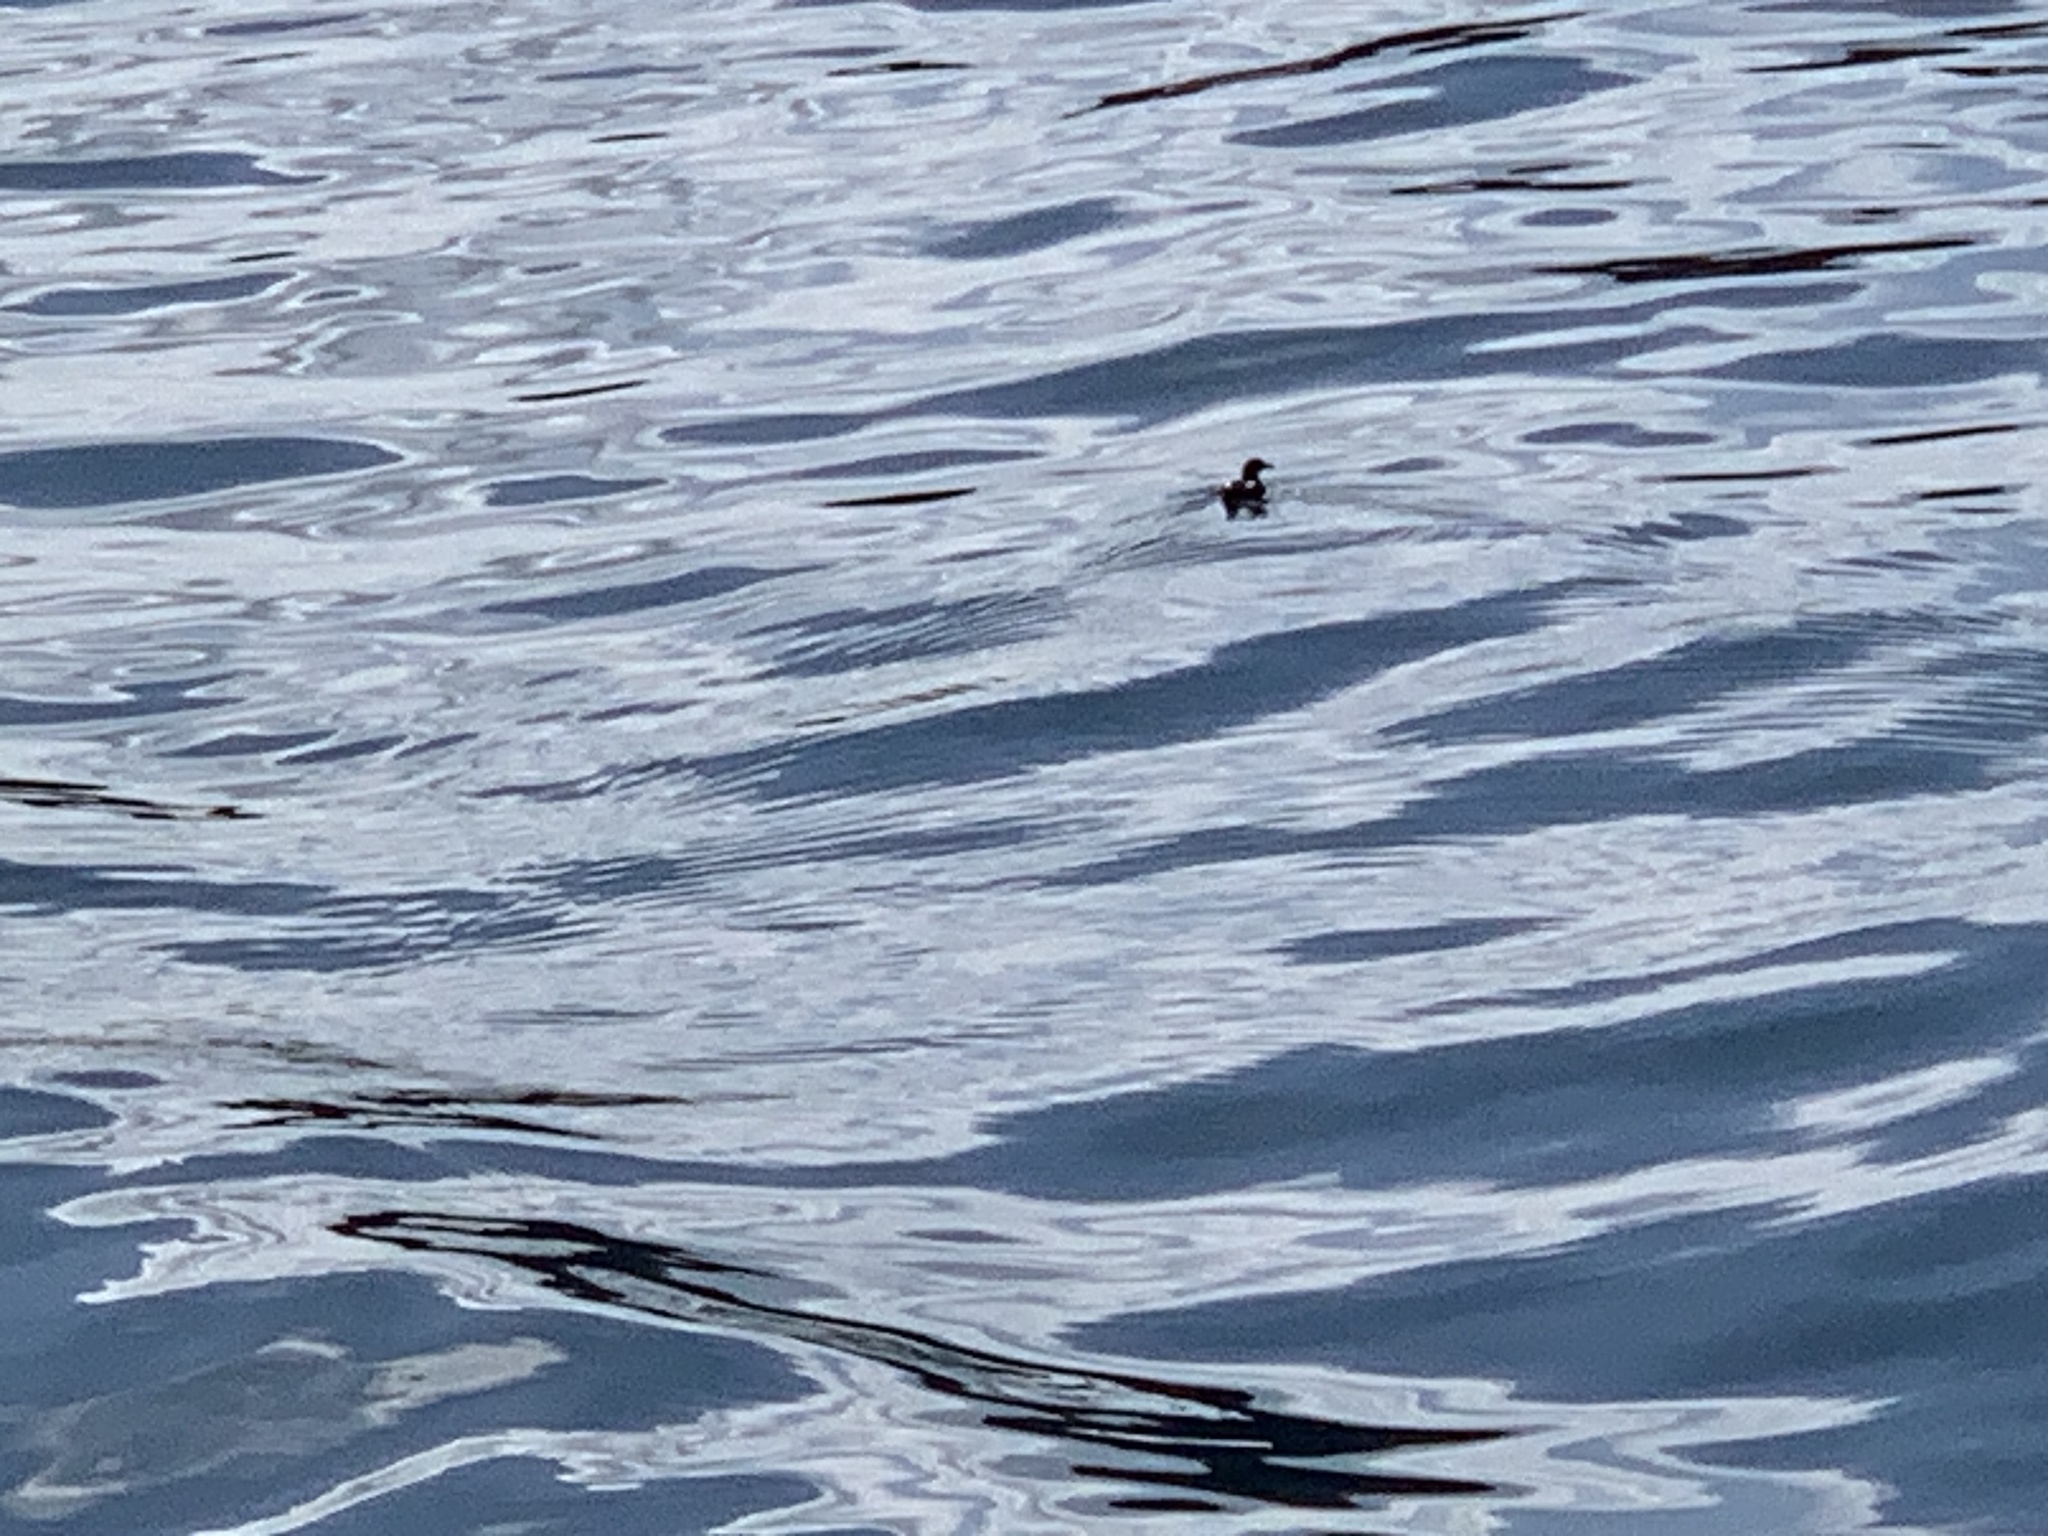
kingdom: Animalia
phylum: Chordata
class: Aves
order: Charadriiformes
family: Alcidae
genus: Cepphus
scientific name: Cepphus columba
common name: Pigeon guillemot
